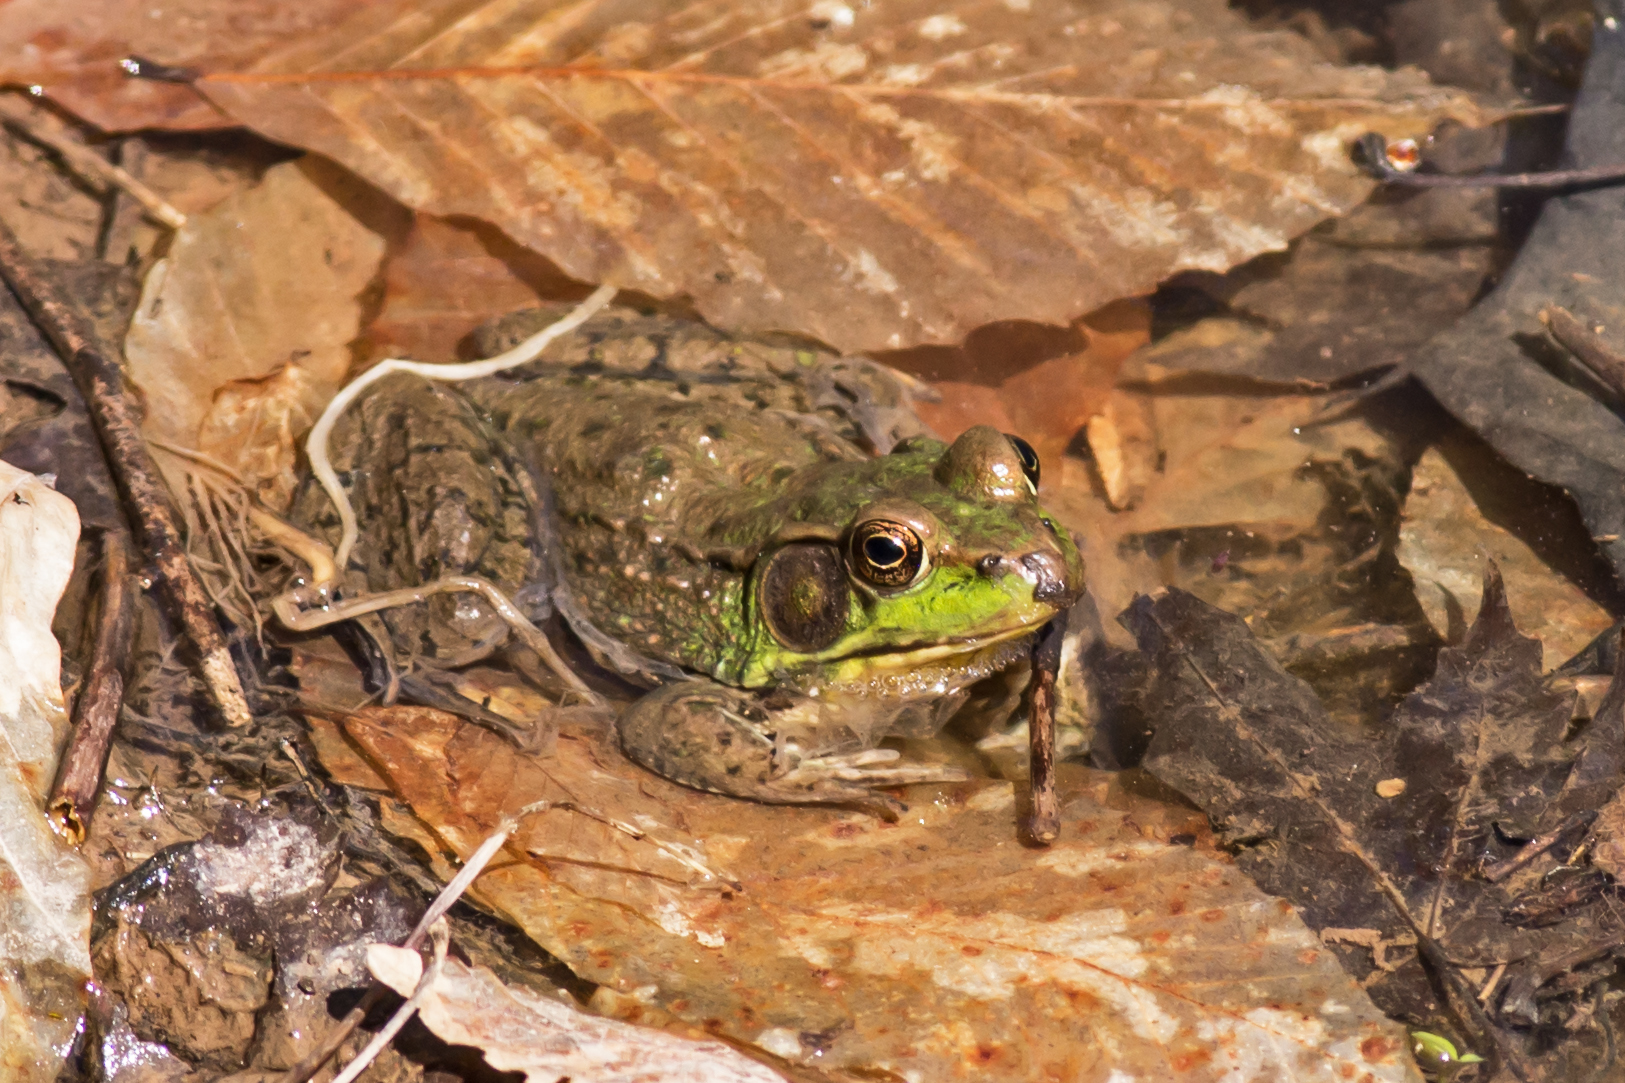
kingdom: Animalia
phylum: Chordata
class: Amphibia
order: Anura
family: Ranidae
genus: Lithobates
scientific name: Lithobates clamitans
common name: Green frog
